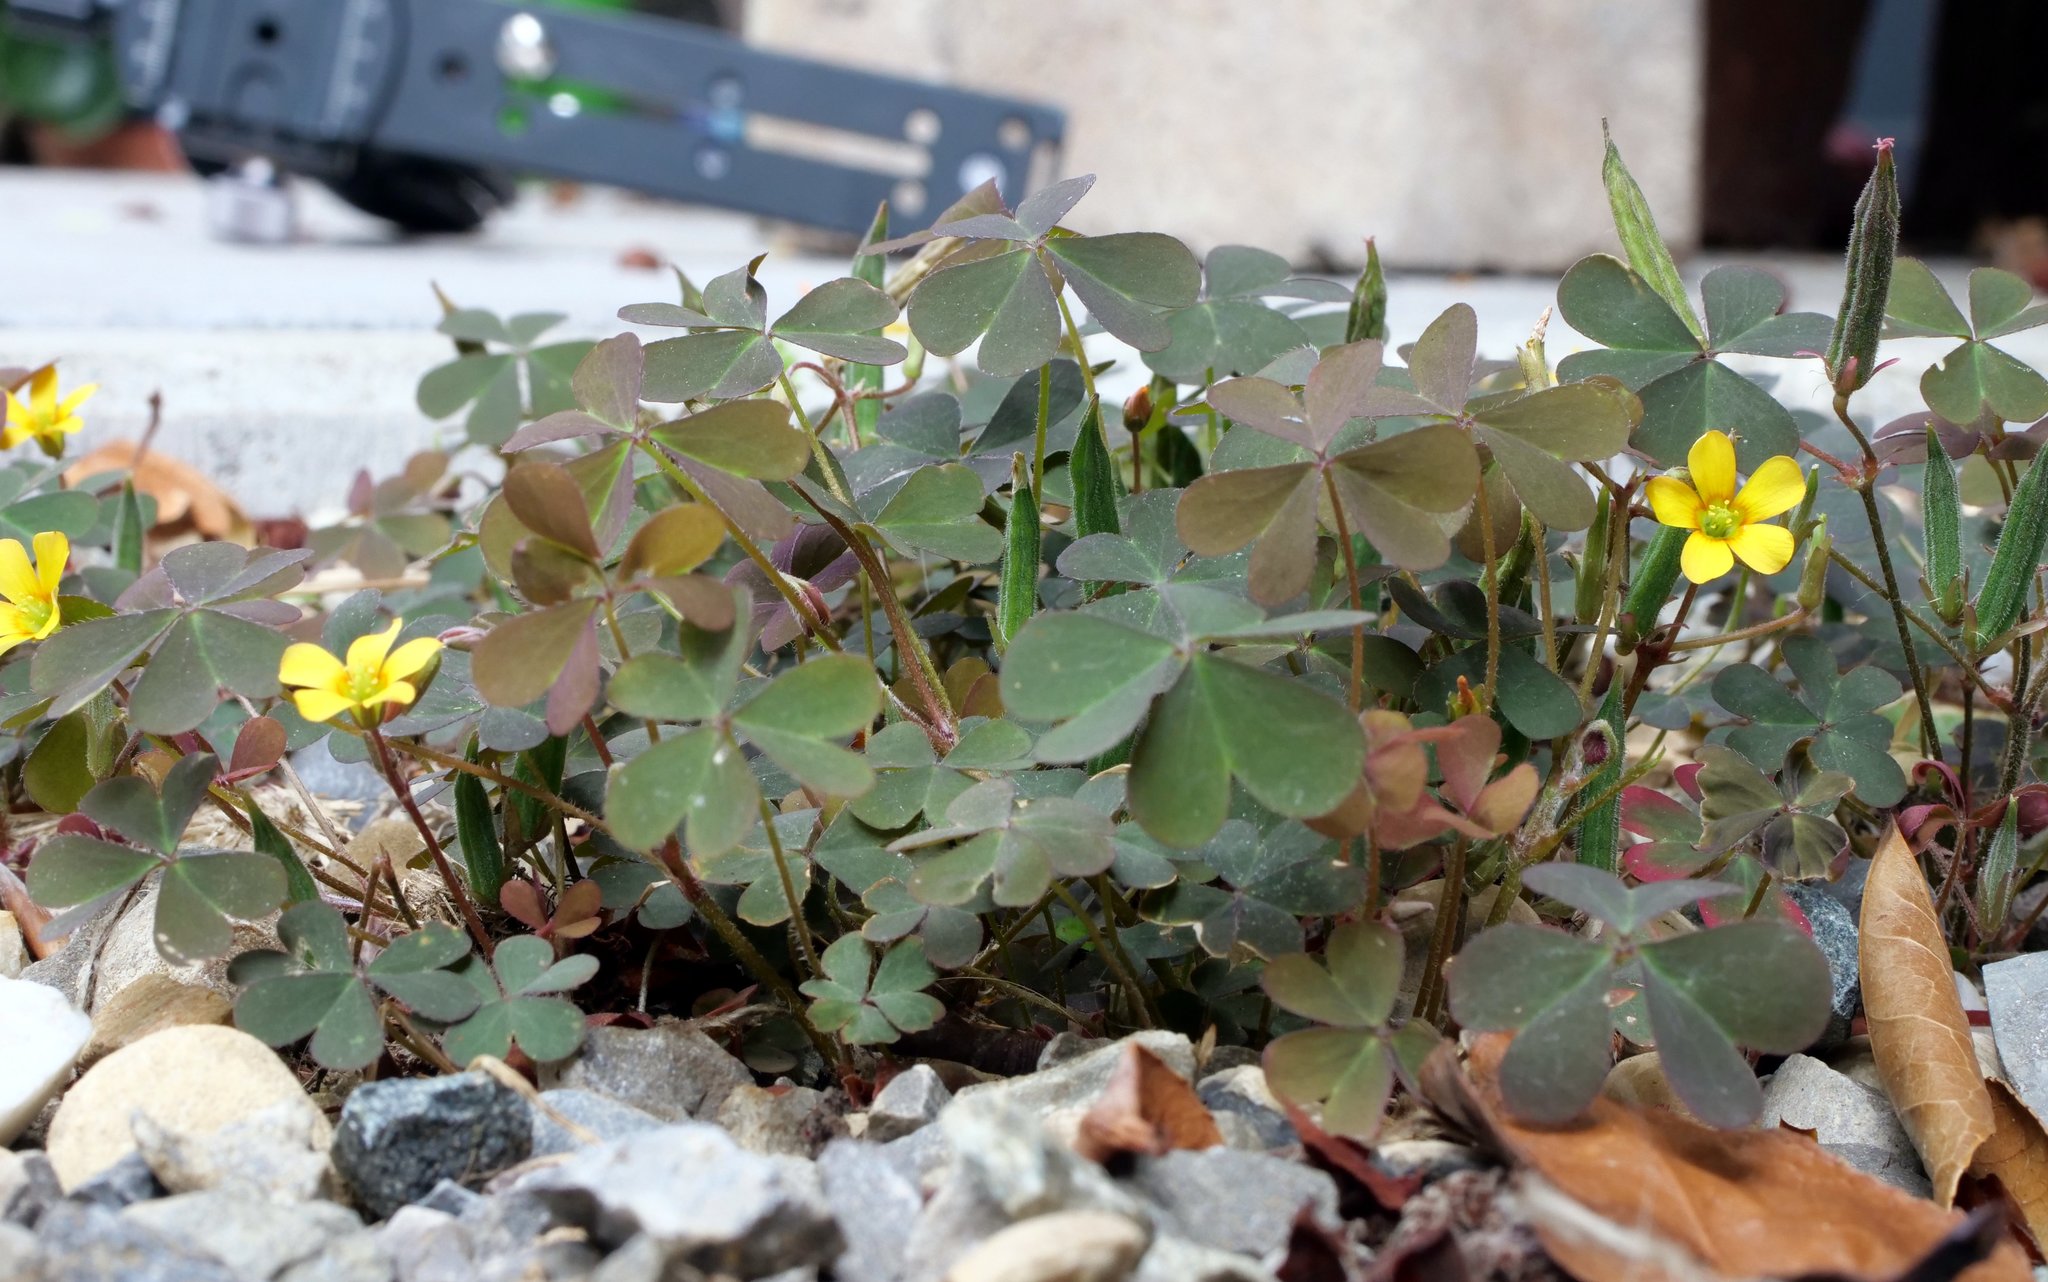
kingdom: Plantae
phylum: Tracheophyta
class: Magnoliopsida
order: Oxalidales
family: Oxalidaceae
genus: Oxalis
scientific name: Oxalis corniculata
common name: Procumbent yellow-sorrel
